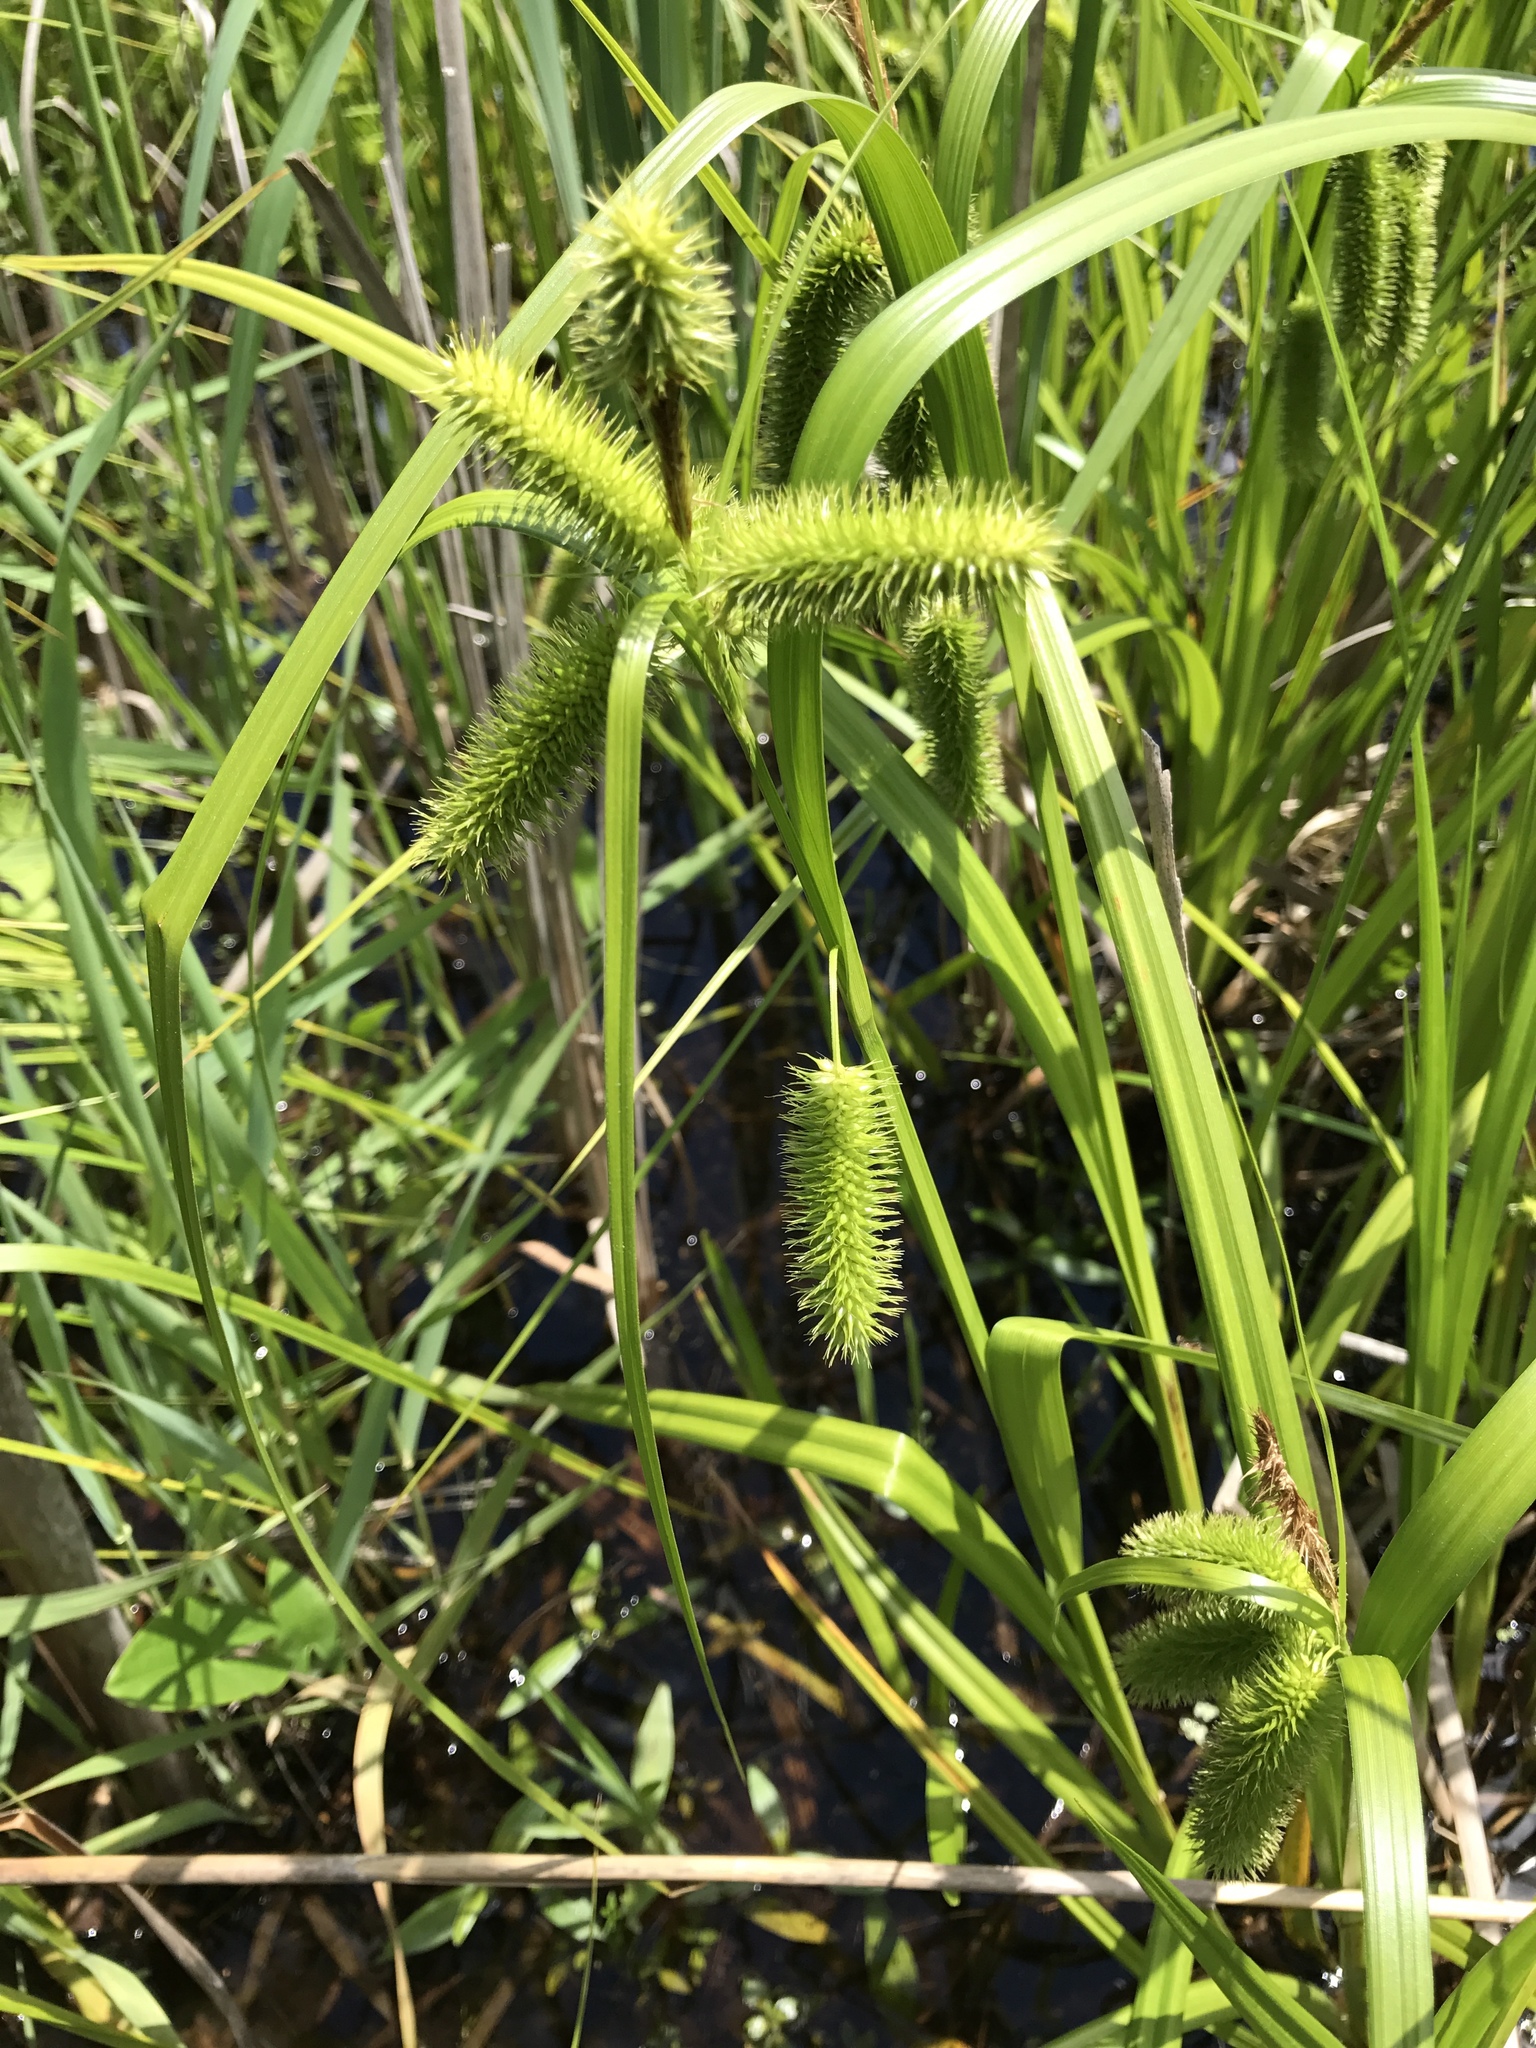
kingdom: Plantae
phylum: Tracheophyta
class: Liliopsida
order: Poales
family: Cyperaceae
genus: Carex
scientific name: Carex comosa
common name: Bristly sedge
